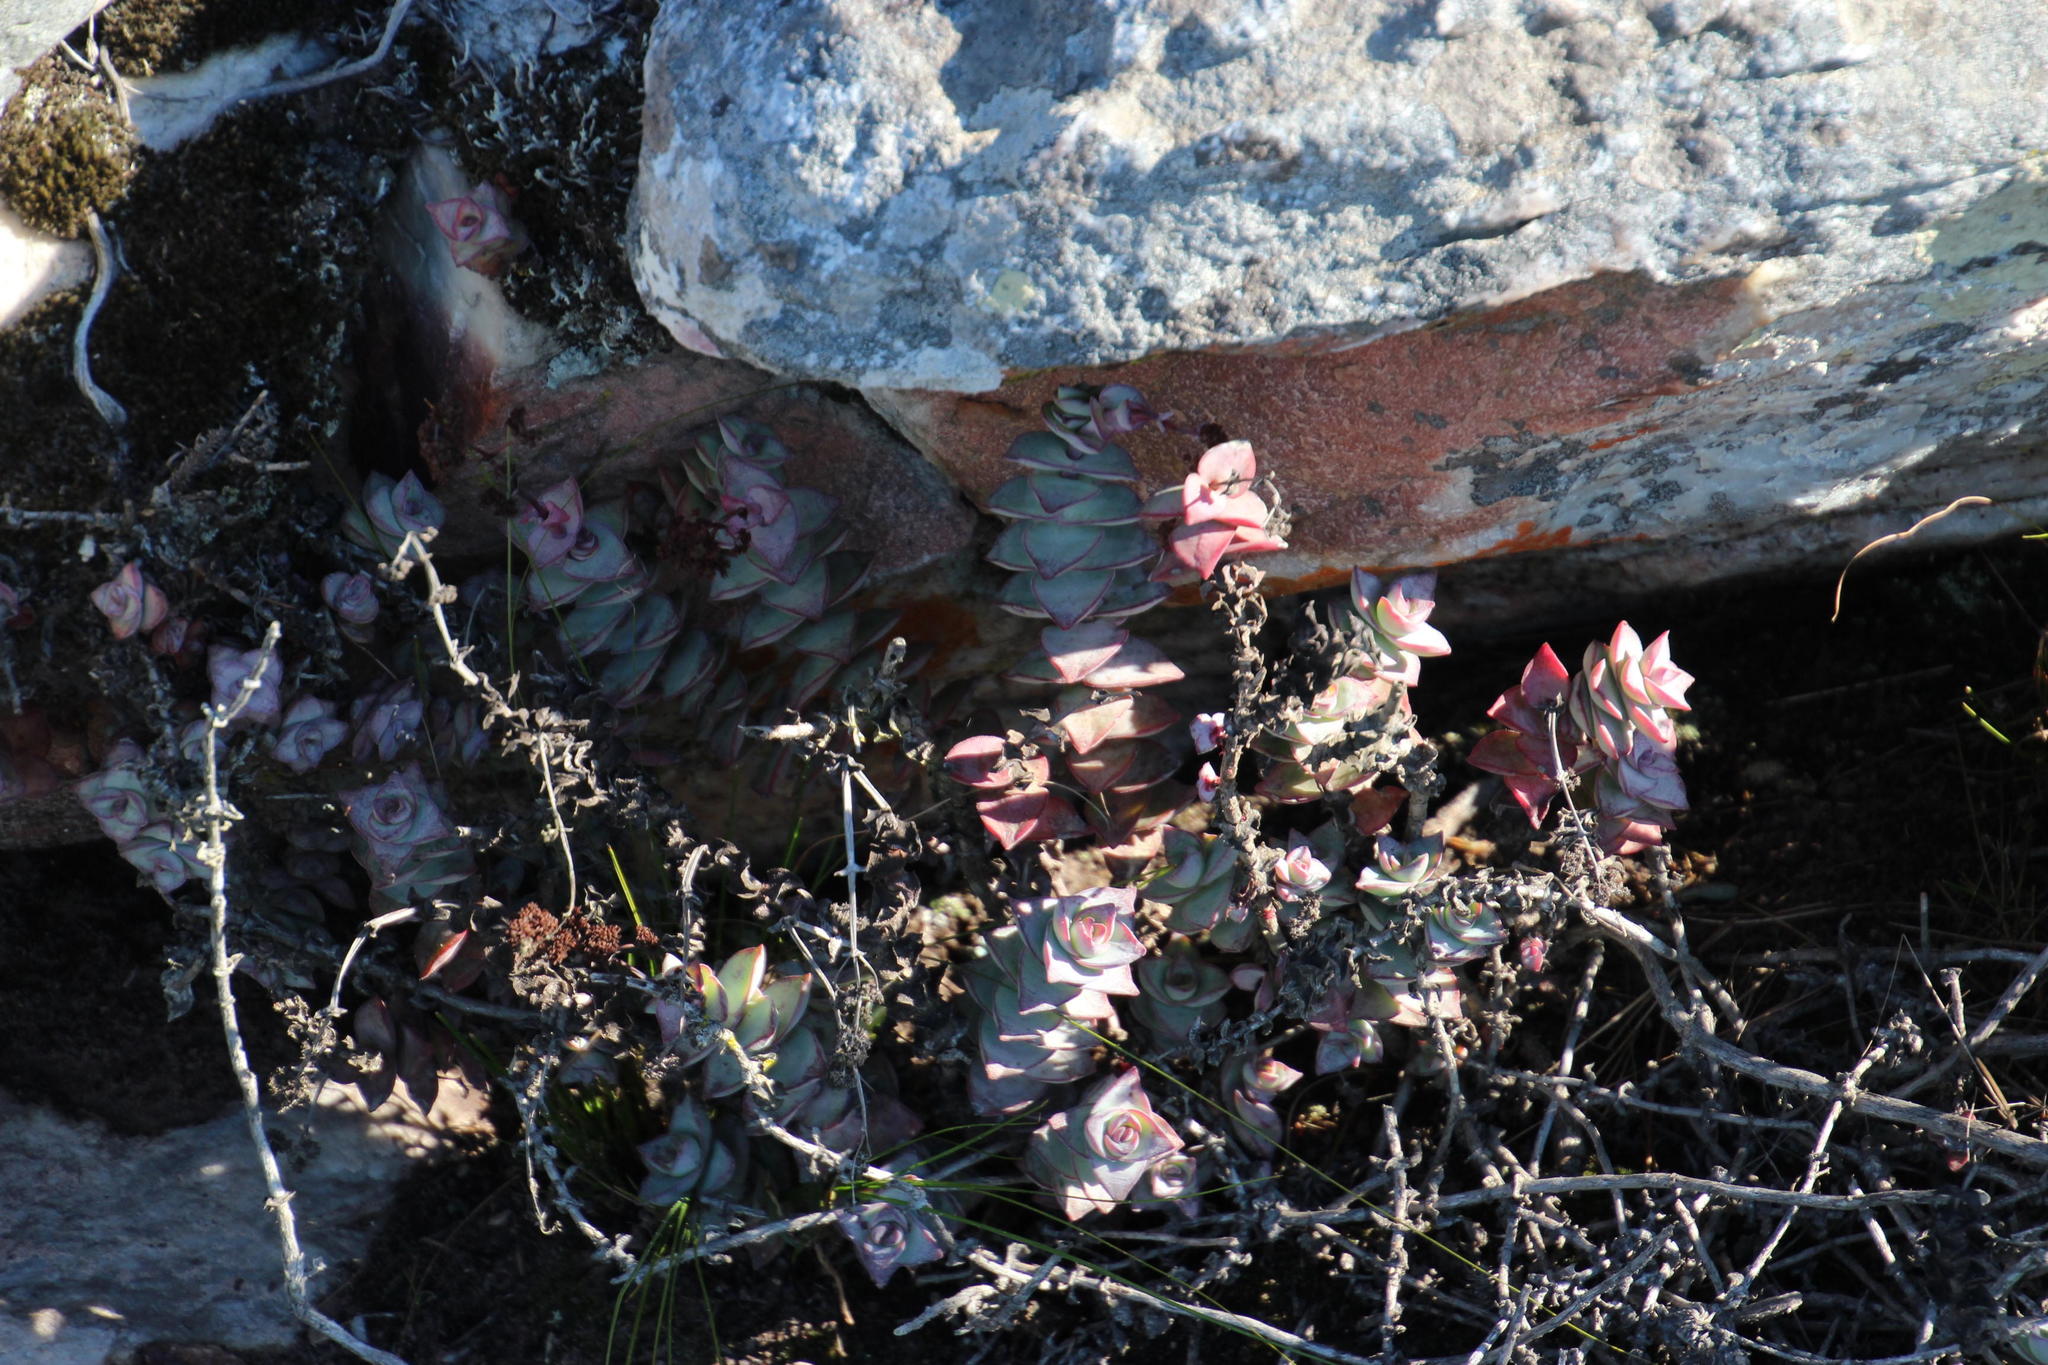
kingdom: Plantae
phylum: Tracheophyta
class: Magnoliopsida
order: Saxifragales
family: Crassulaceae
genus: Crassula
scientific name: Crassula perforata
